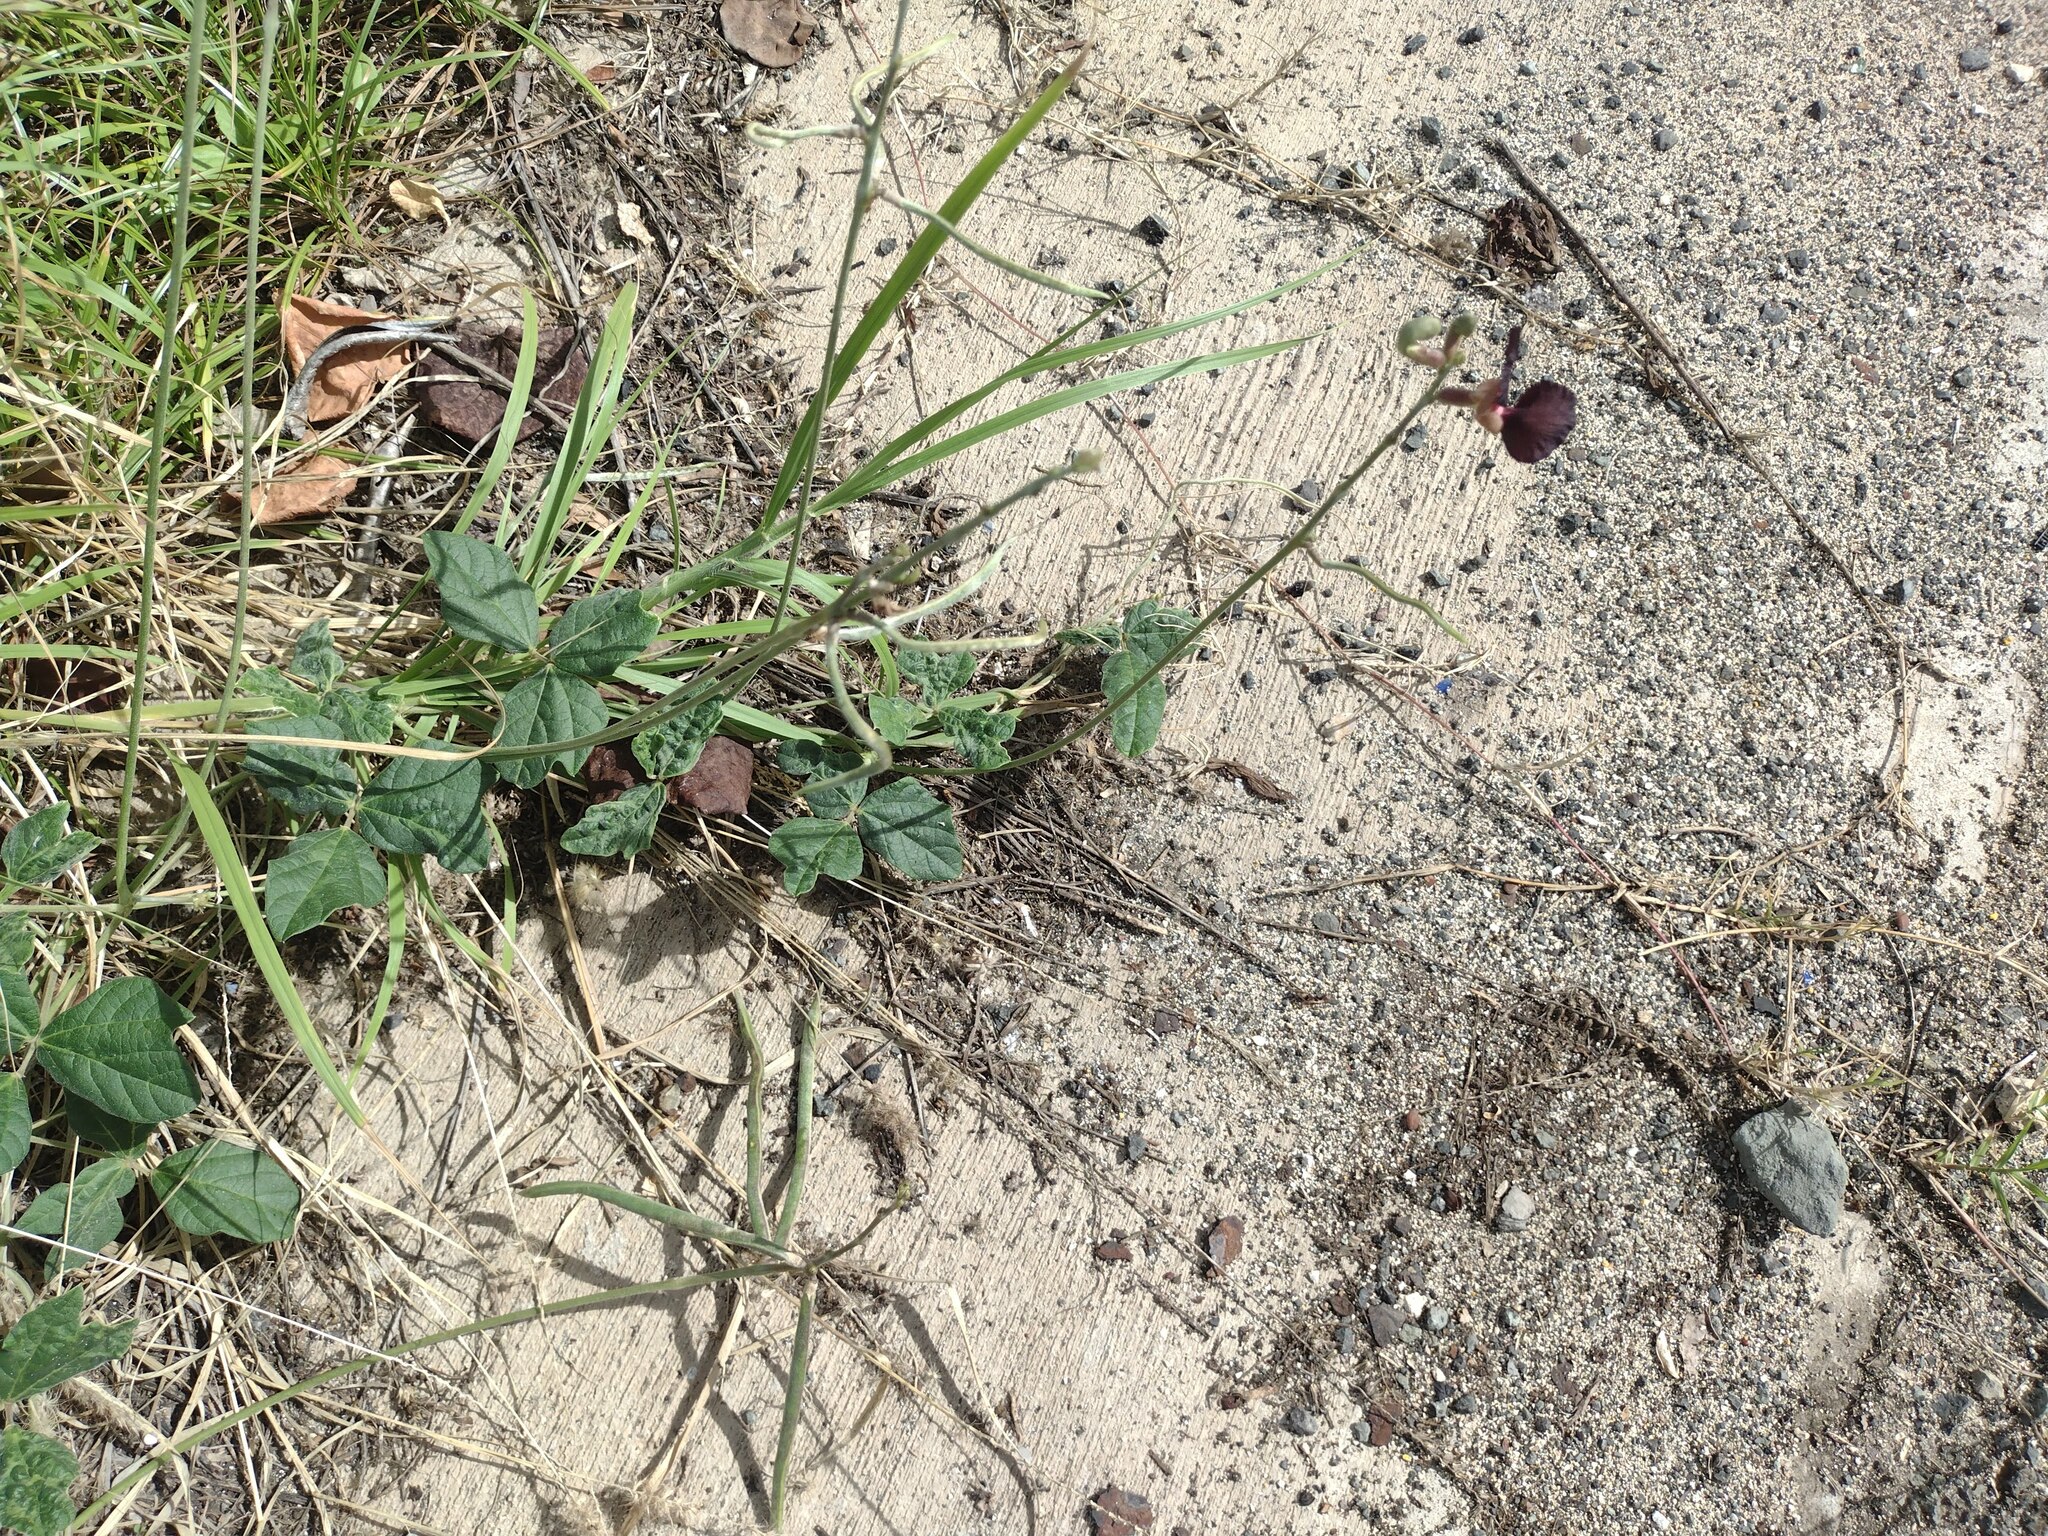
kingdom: Plantae
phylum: Tracheophyta
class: Magnoliopsida
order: Fabales
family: Fabaceae
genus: Macroptilium
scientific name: Macroptilium atropurpureum
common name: Purple bushbean
